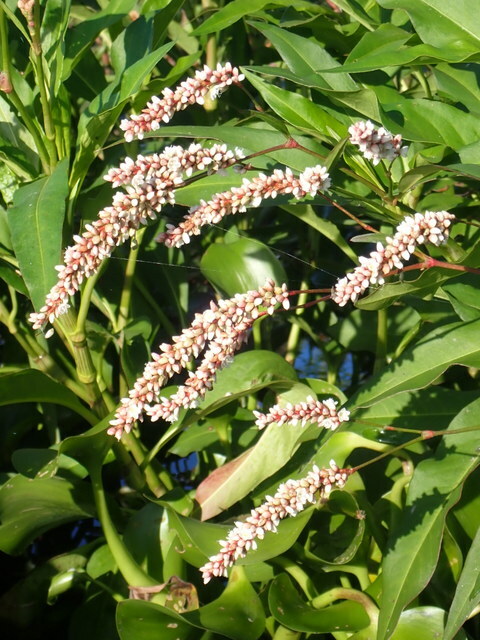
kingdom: Plantae
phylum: Tracheophyta
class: Magnoliopsida
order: Caryophyllales
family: Polygonaceae
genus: Persicaria
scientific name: Persicaria glabra
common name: Denseflower knotweed
